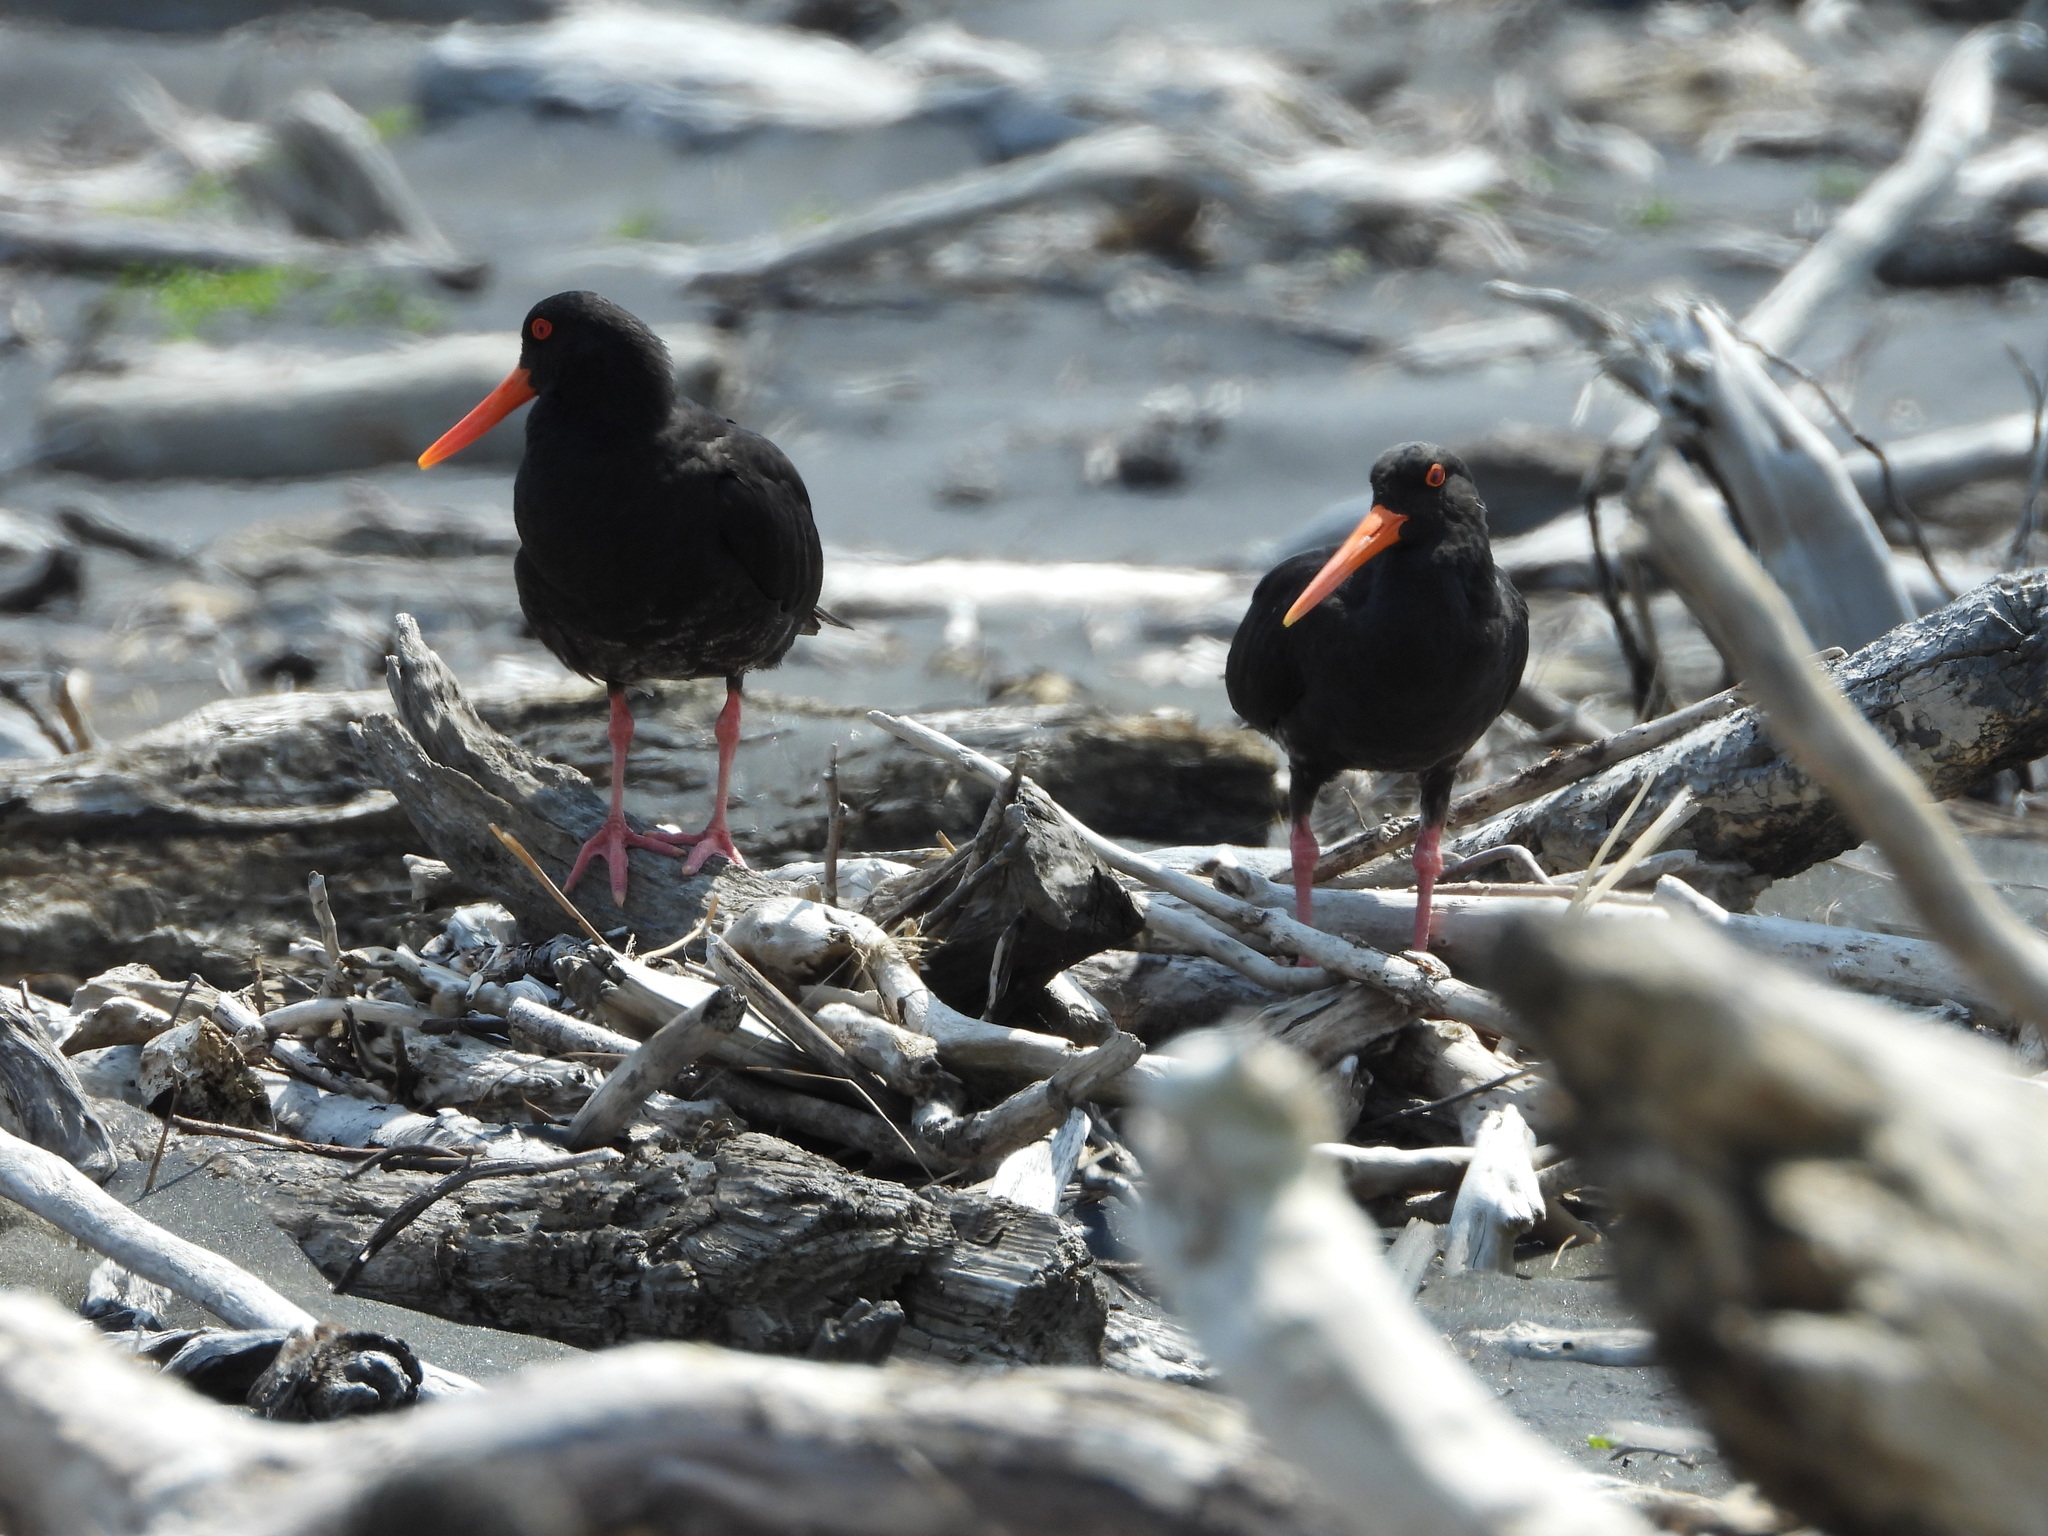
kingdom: Animalia
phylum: Chordata
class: Aves
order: Charadriiformes
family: Haematopodidae
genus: Haematopus
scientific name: Haematopus unicolor
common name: Variable oystercatcher
